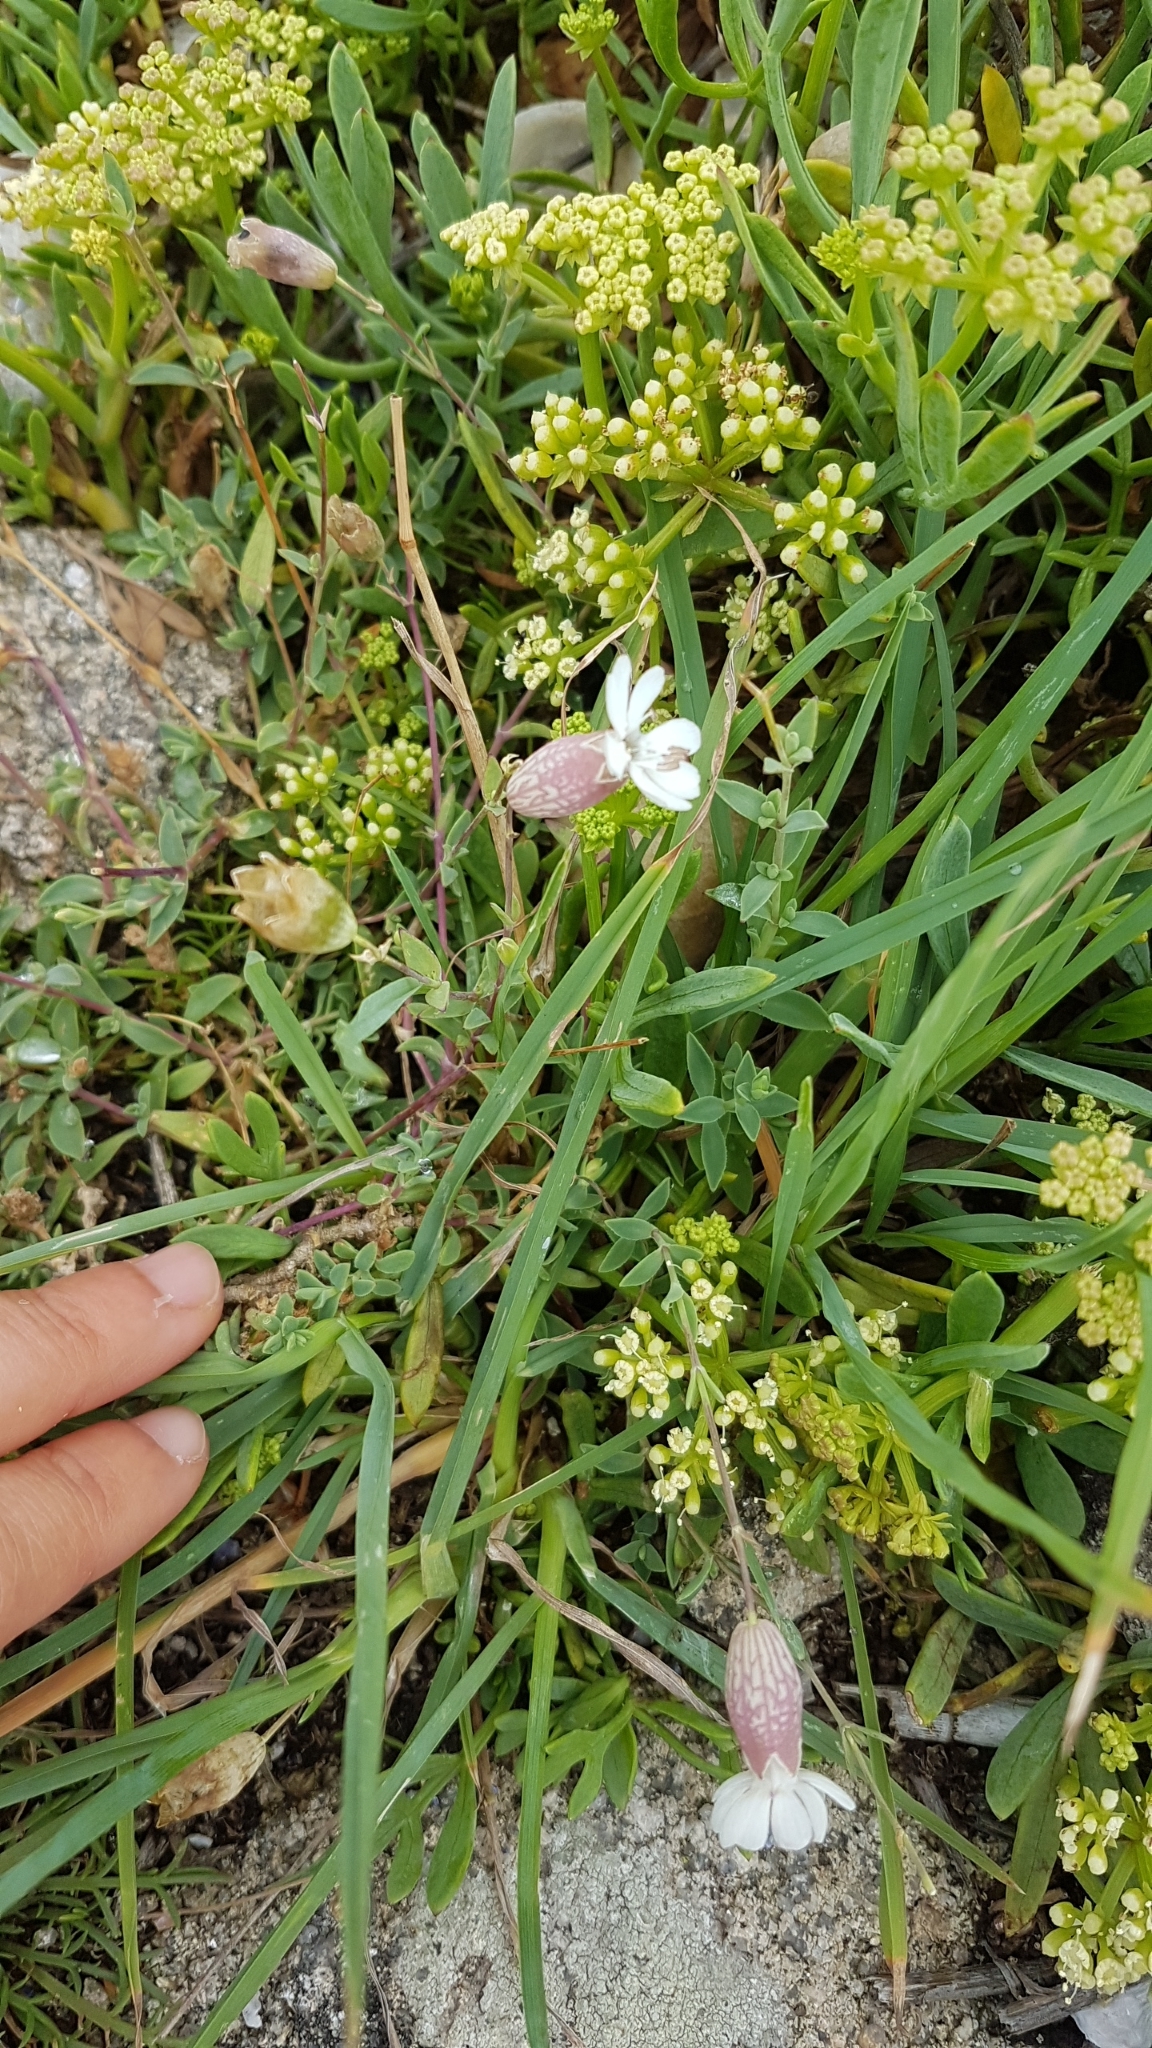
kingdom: Plantae
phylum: Tracheophyta
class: Magnoliopsida
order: Caryophyllales
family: Caryophyllaceae
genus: Silene
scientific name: Silene uniflora
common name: Sea campion
